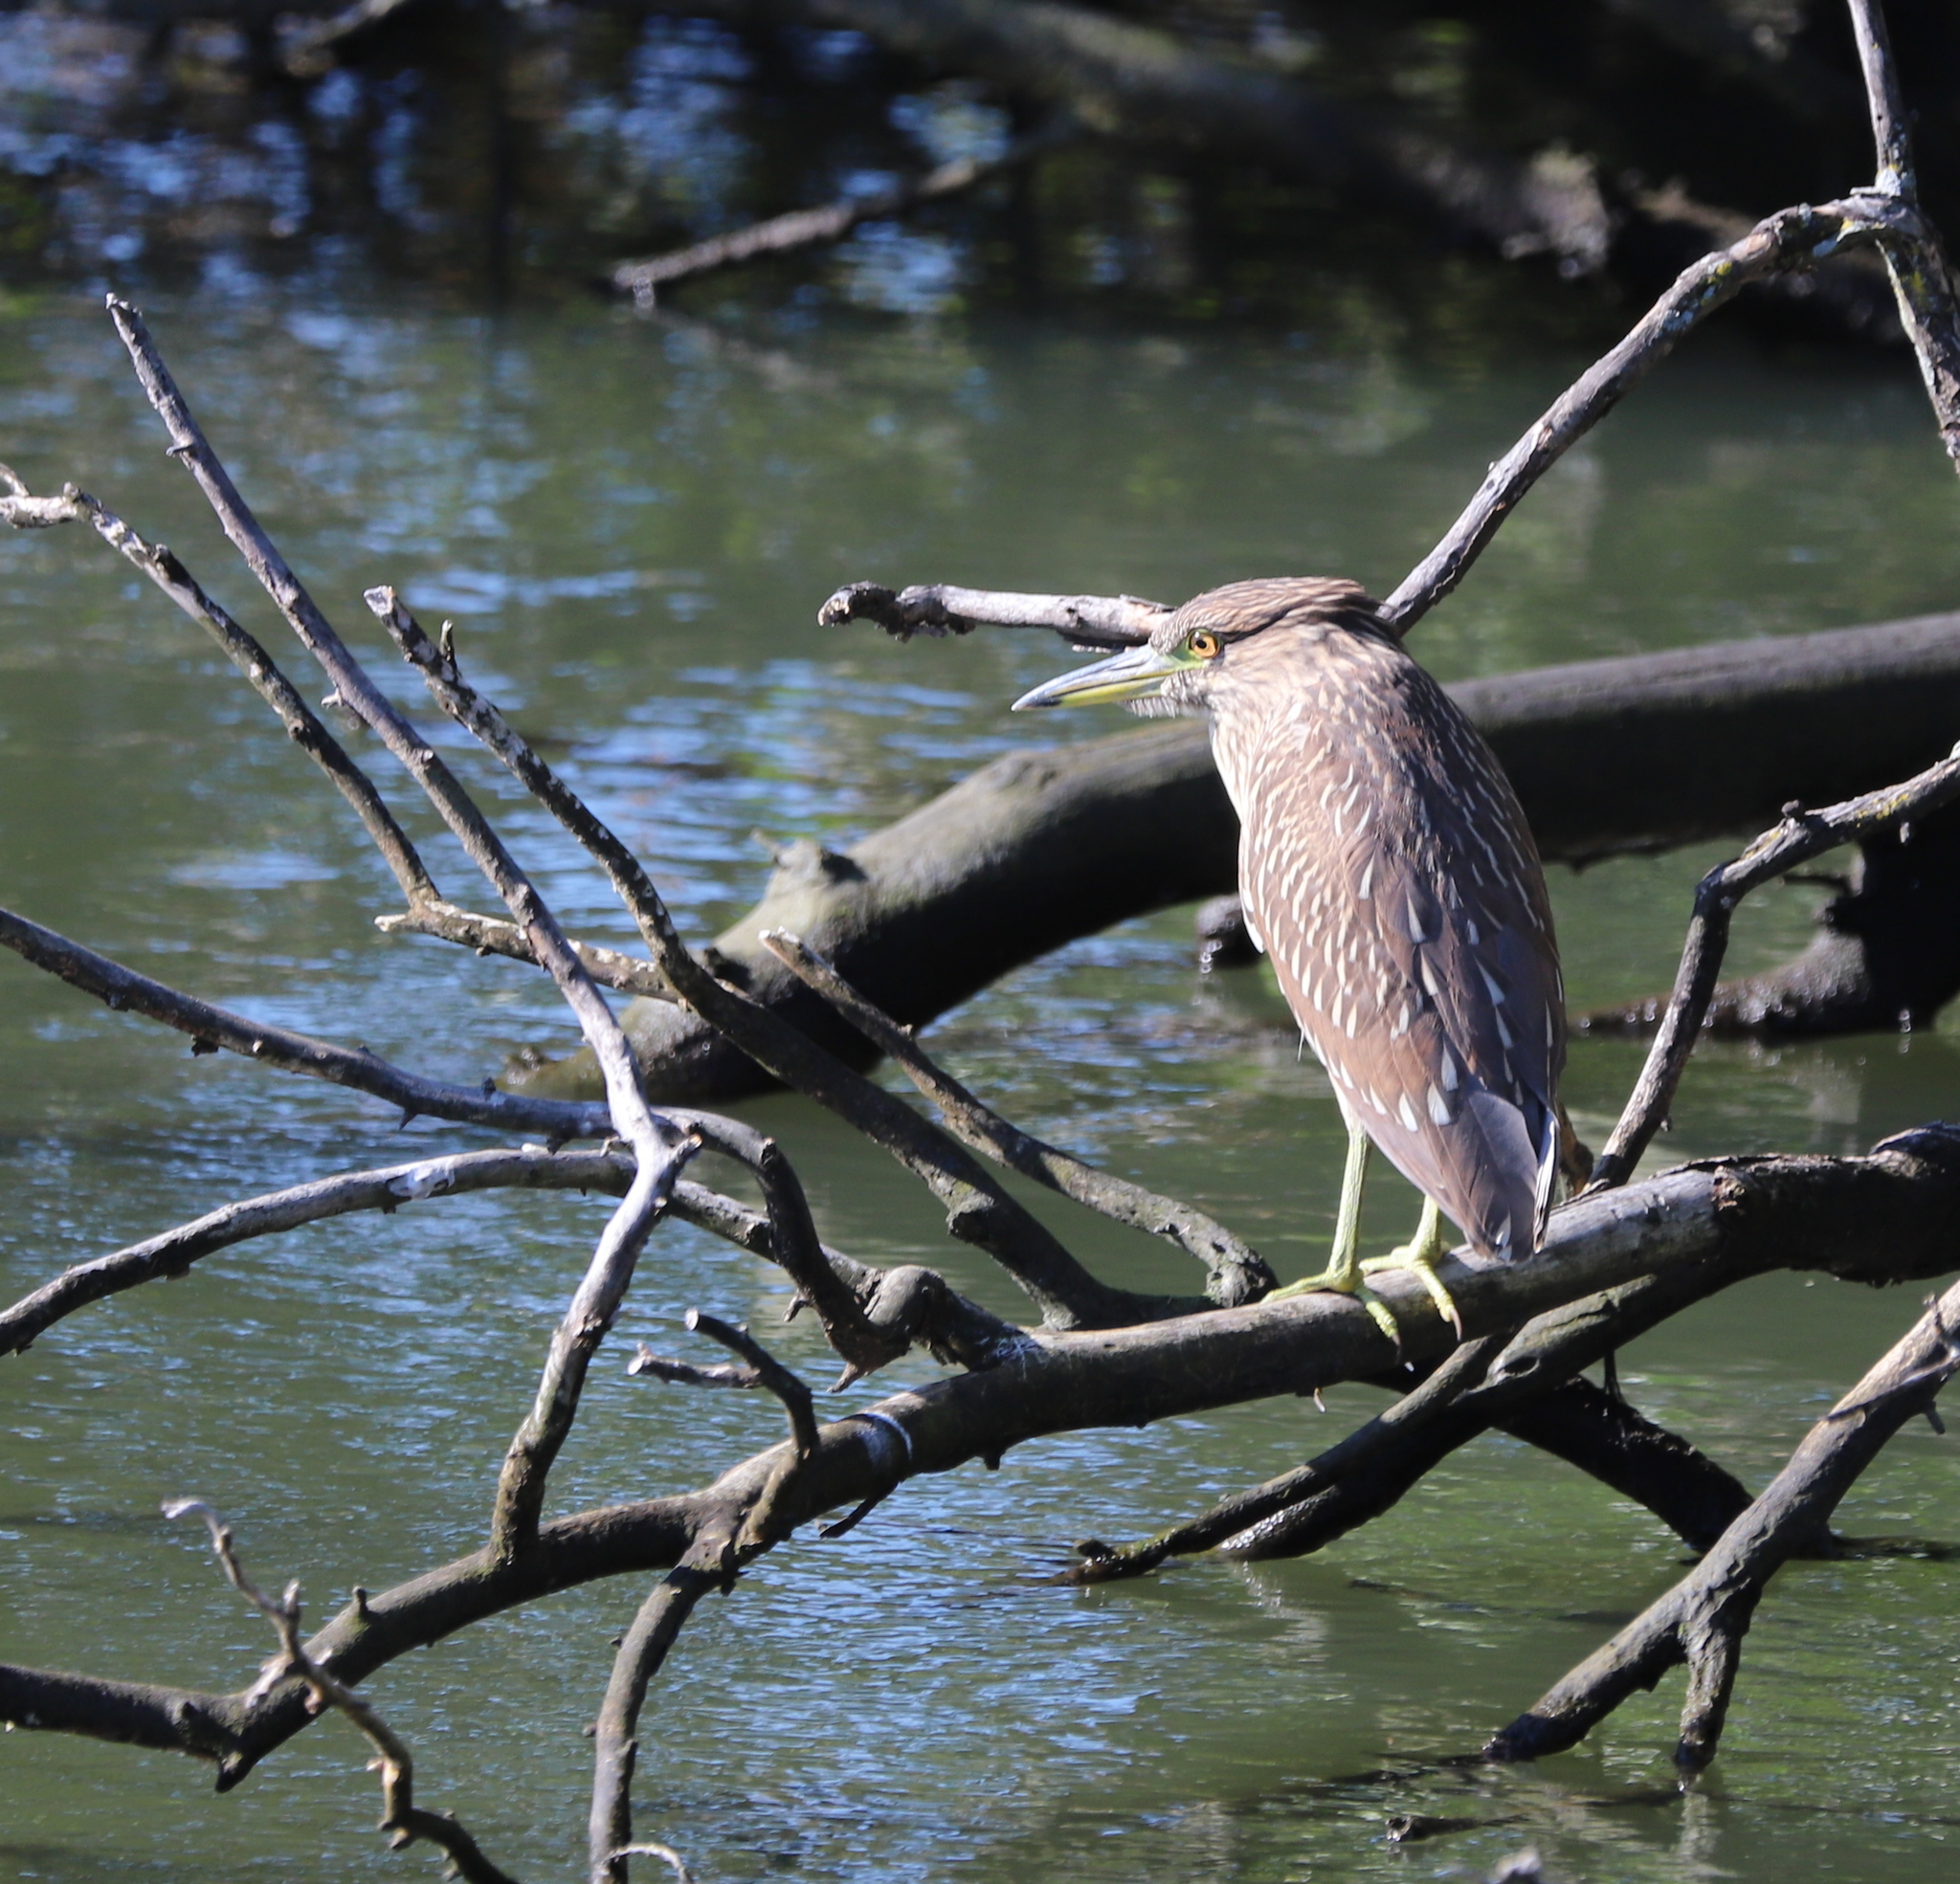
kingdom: Animalia
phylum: Chordata
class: Aves
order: Pelecaniformes
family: Ardeidae
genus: Nycticorax
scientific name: Nycticorax nycticorax
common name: Black-crowned night heron
